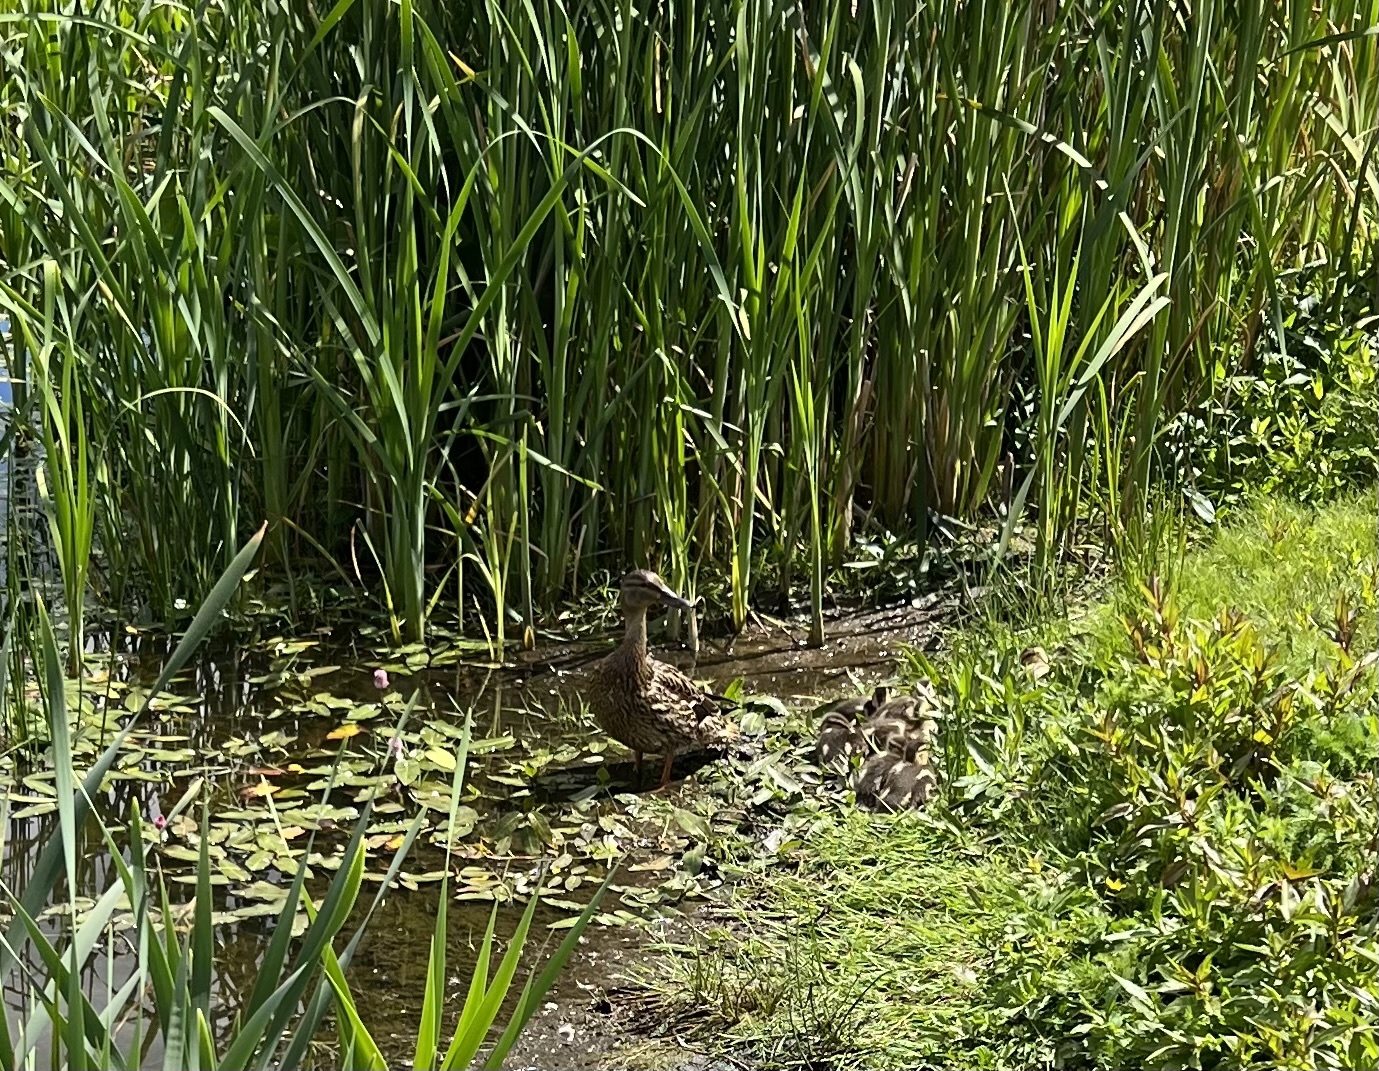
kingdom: Animalia
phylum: Chordata
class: Aves
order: Anseriformes
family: Anatidae
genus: Anas
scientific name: Anas platyrhynchos
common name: Mallard
